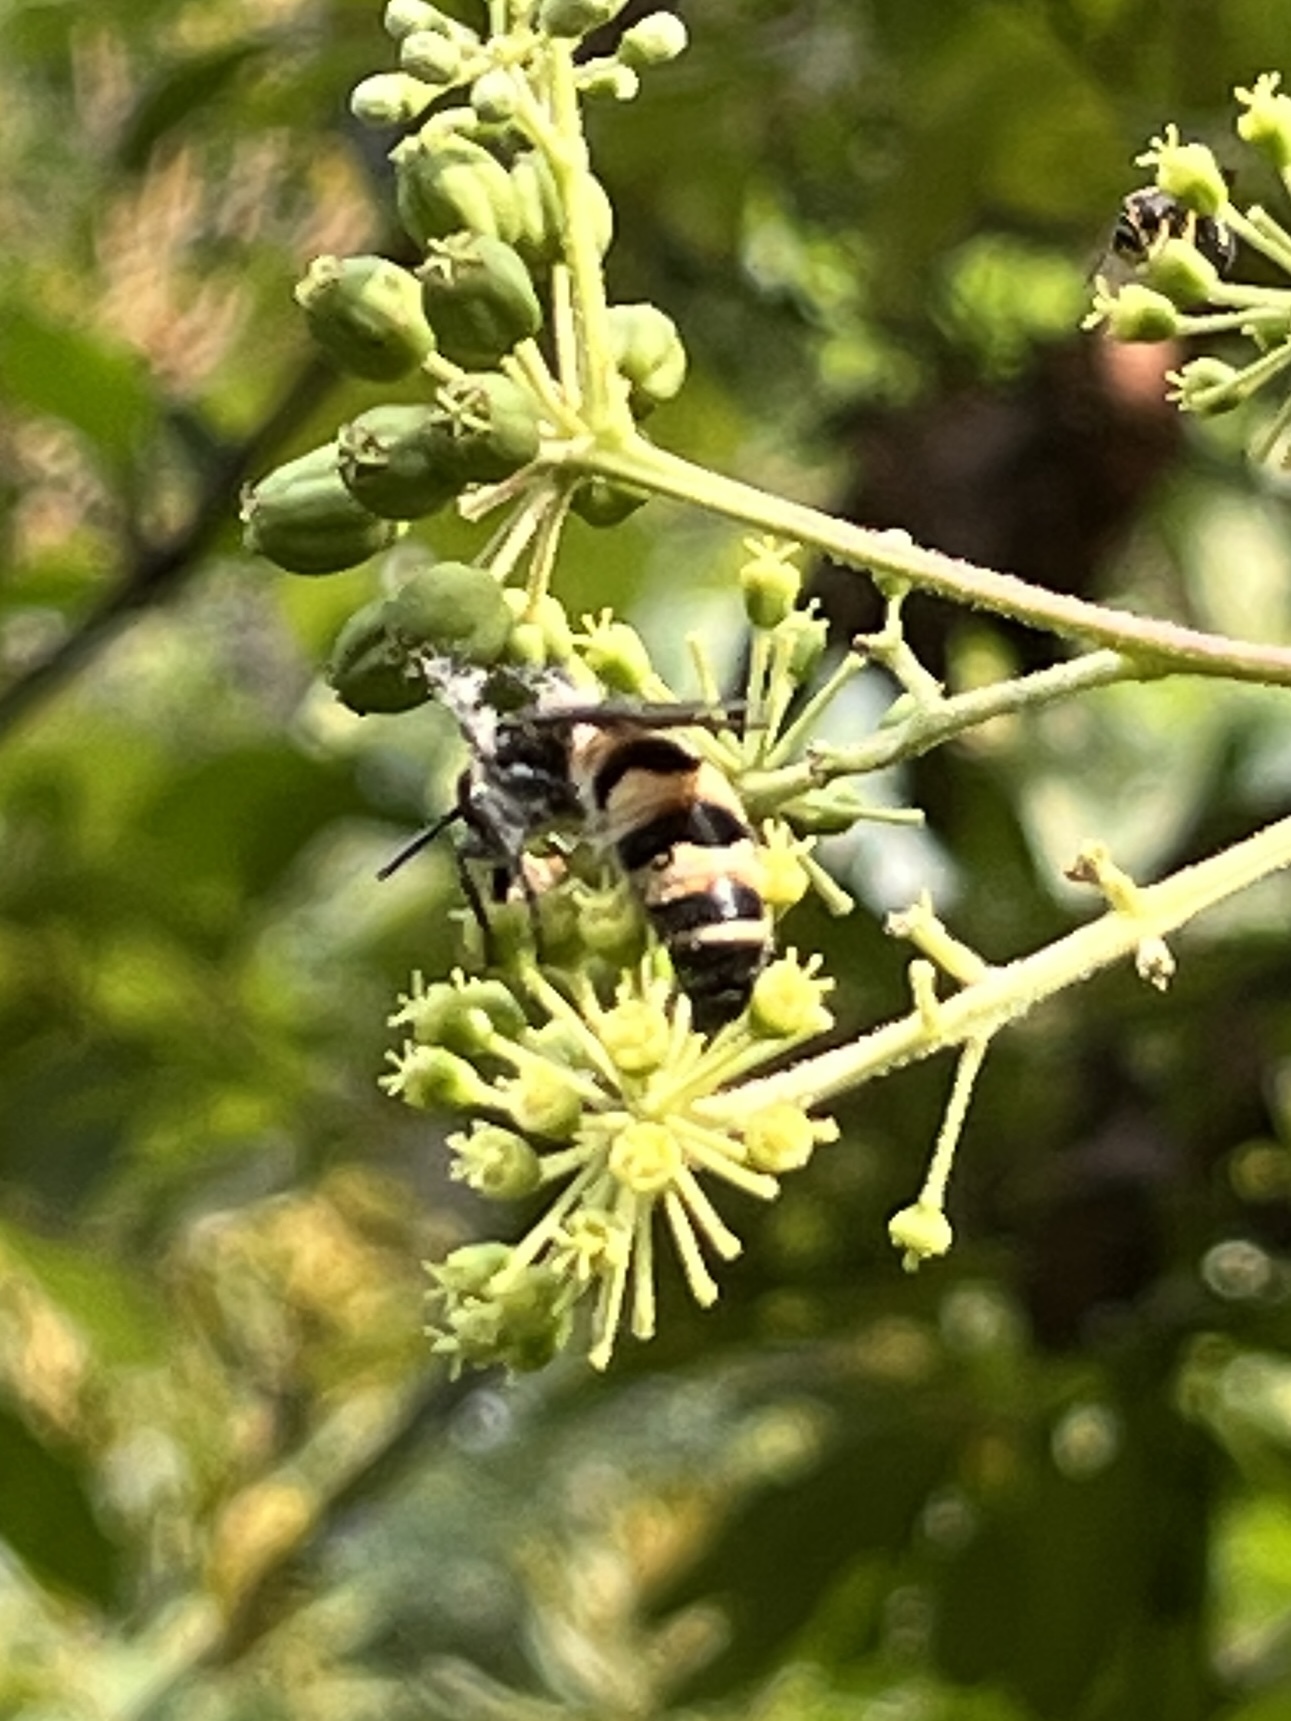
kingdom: Animalia
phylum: Arthropoda
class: Insecta
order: Hymenoptera
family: Scoliidae
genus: Dielis
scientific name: Dielis
